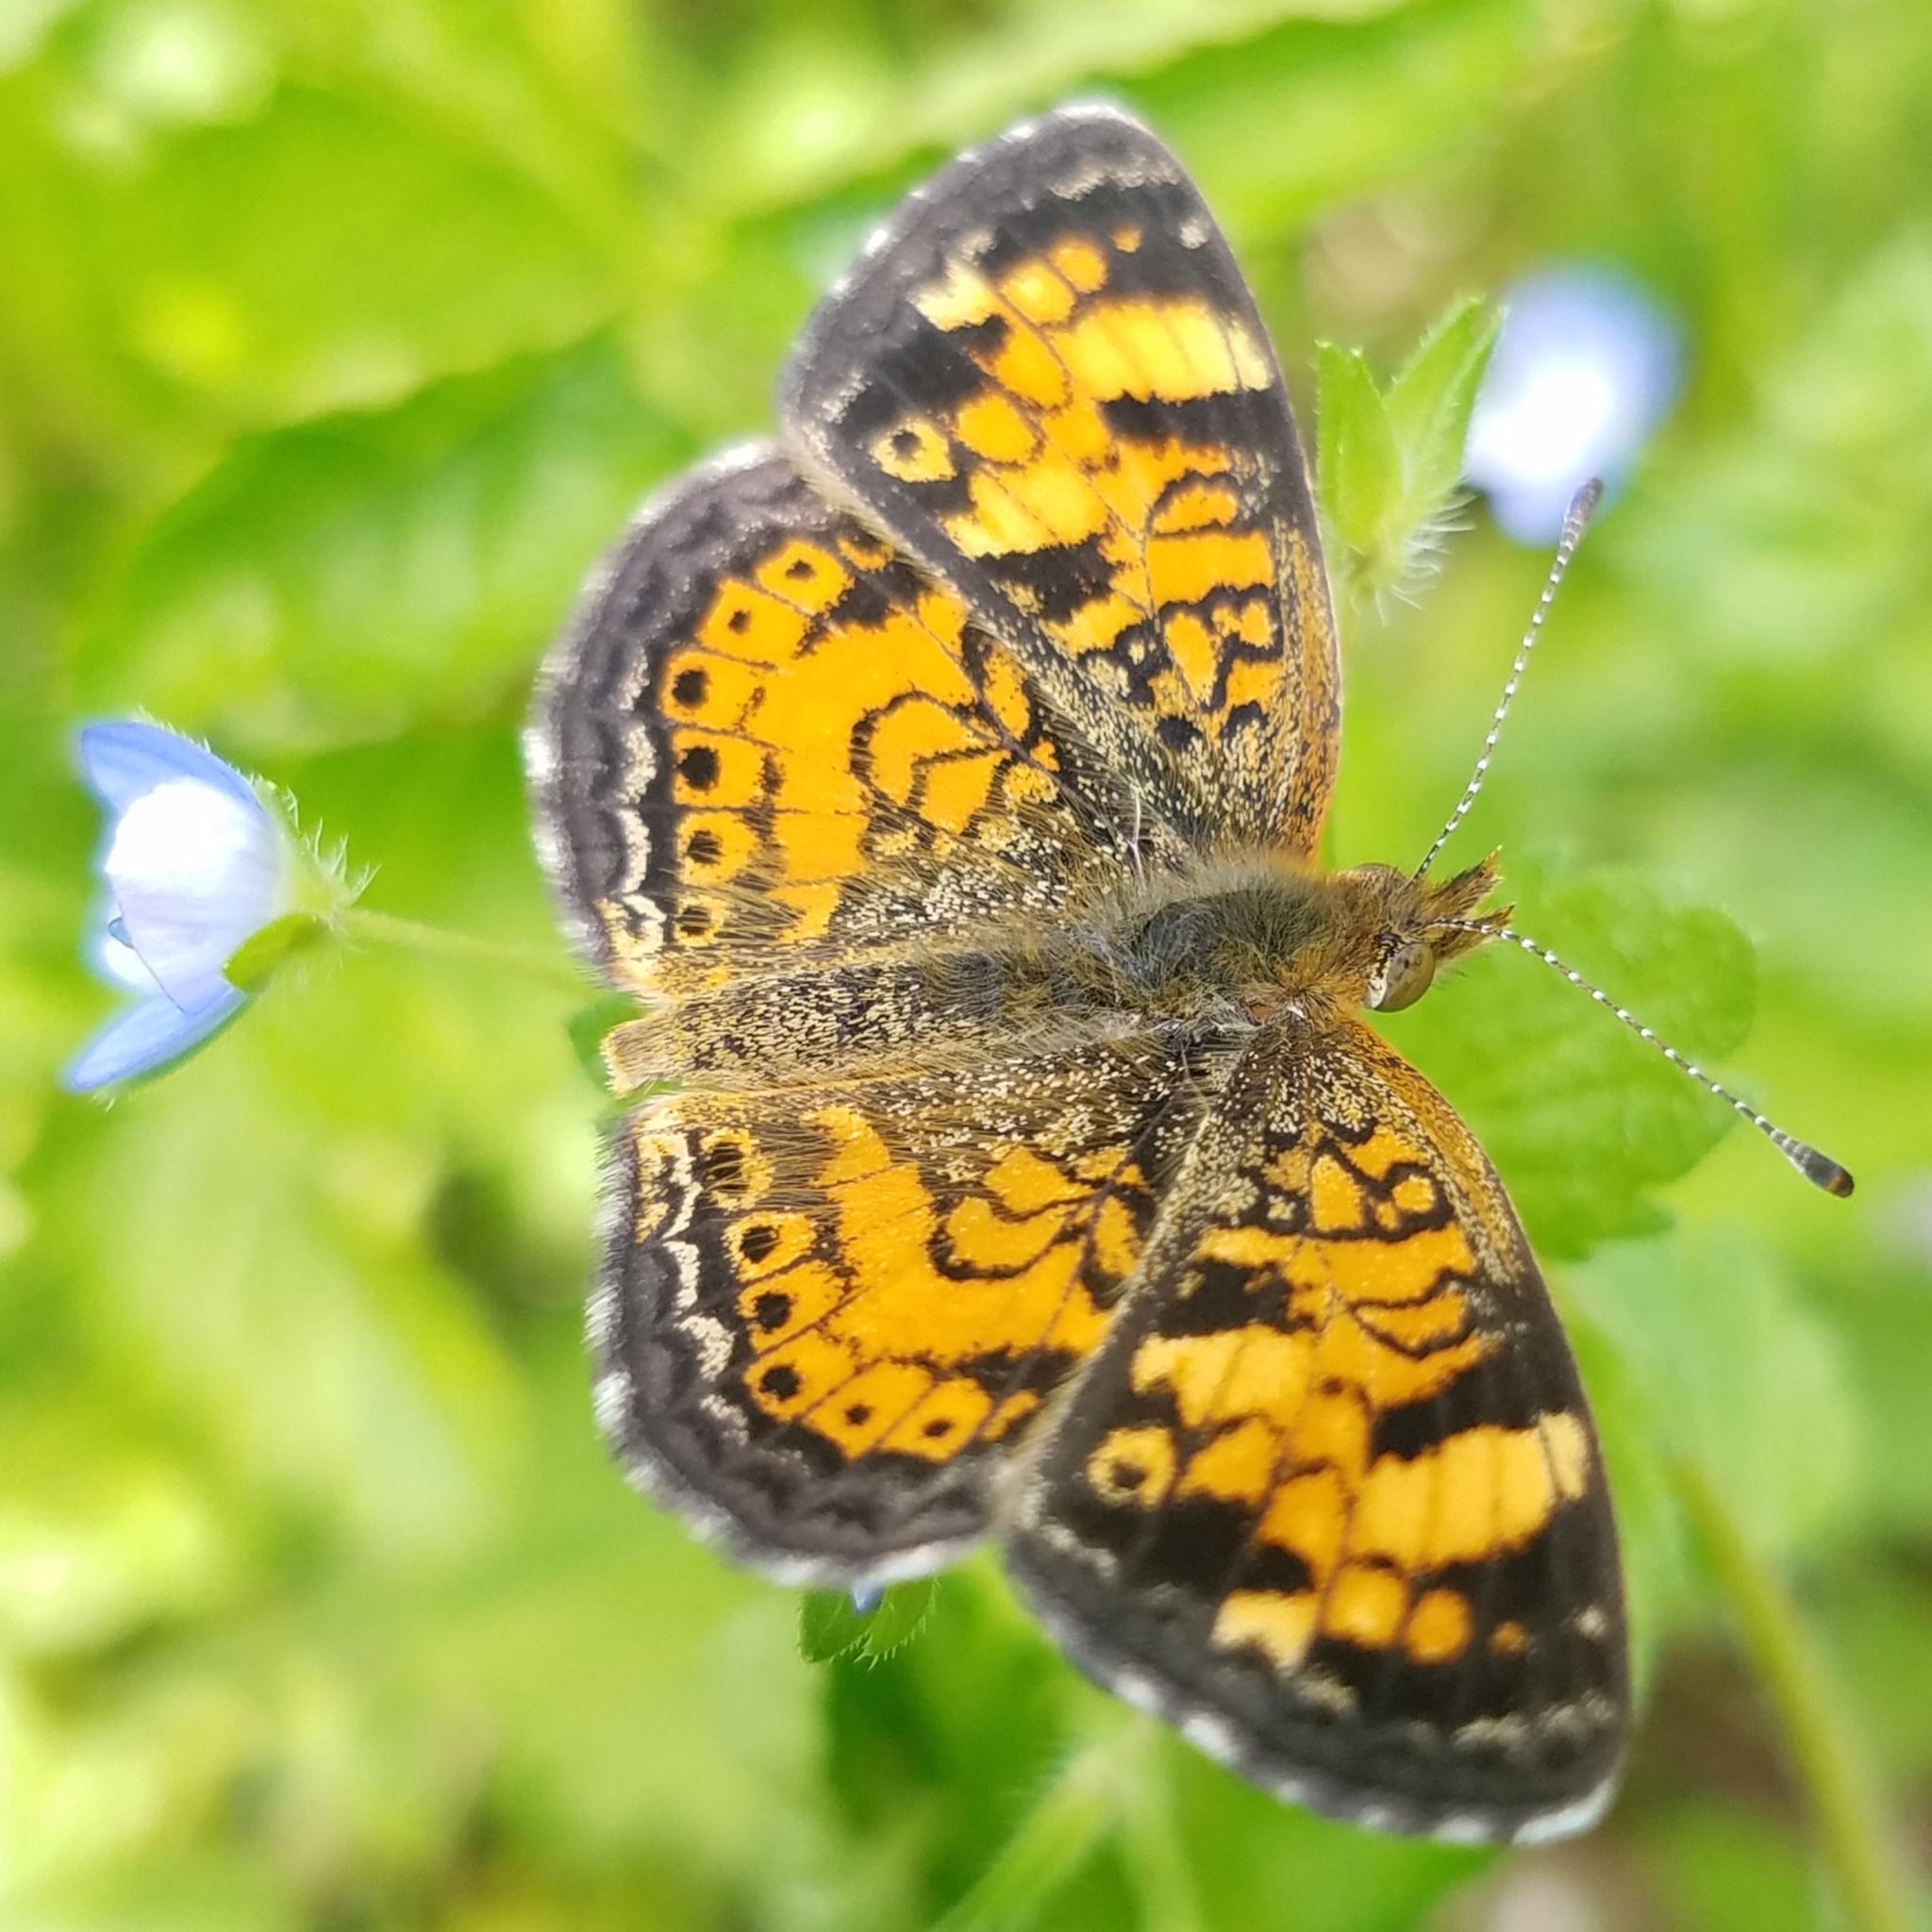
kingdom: Animalia
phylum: Arthropoda
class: Insecta
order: Lepidoptera
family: Nymphalidae
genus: Phyciodes
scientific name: Phyciodes tharos
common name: Pearl crescent
